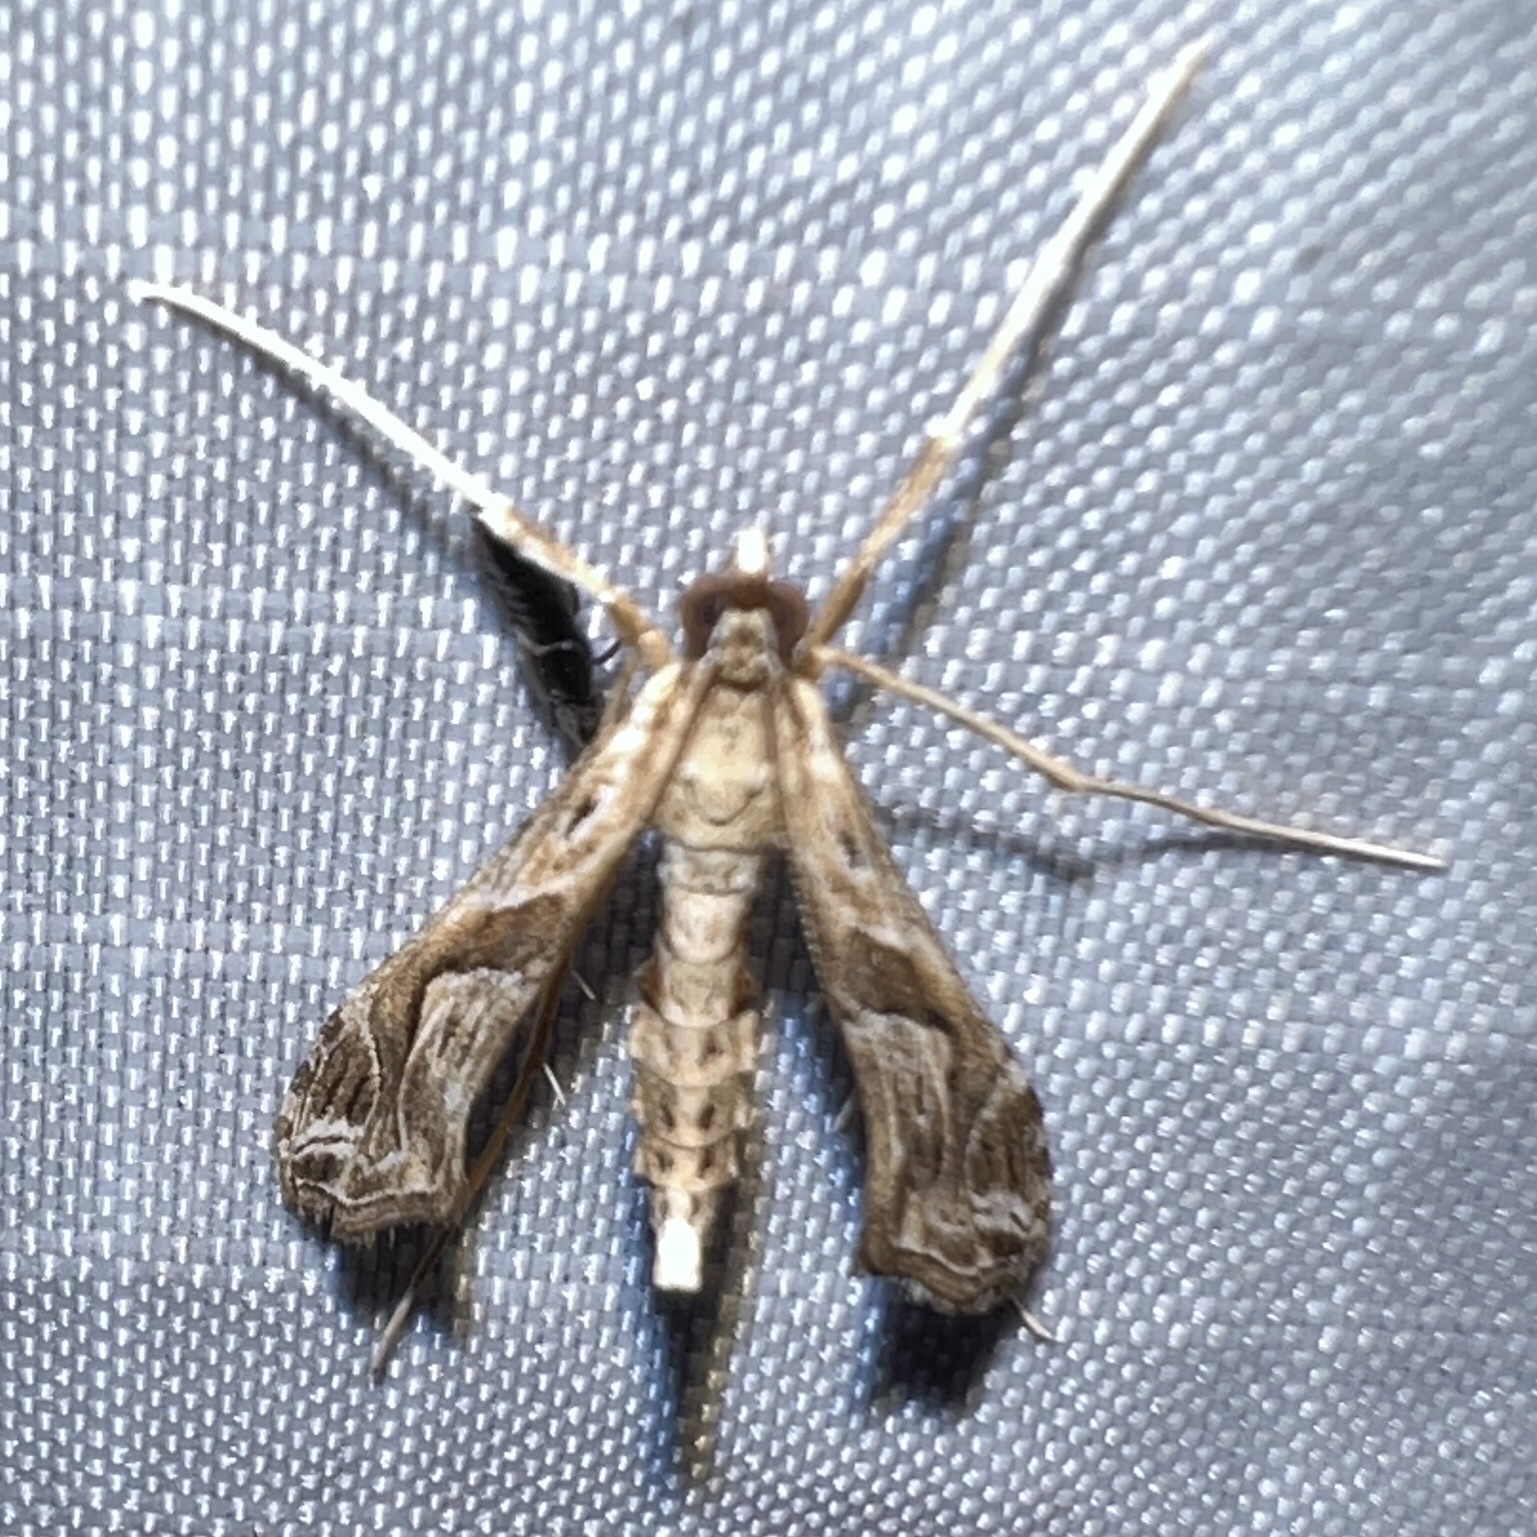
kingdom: Animalia
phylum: Arthropoda
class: Insecta
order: Lepidoptera
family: Crambidae
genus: Lineodes
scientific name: Lineodes integra
